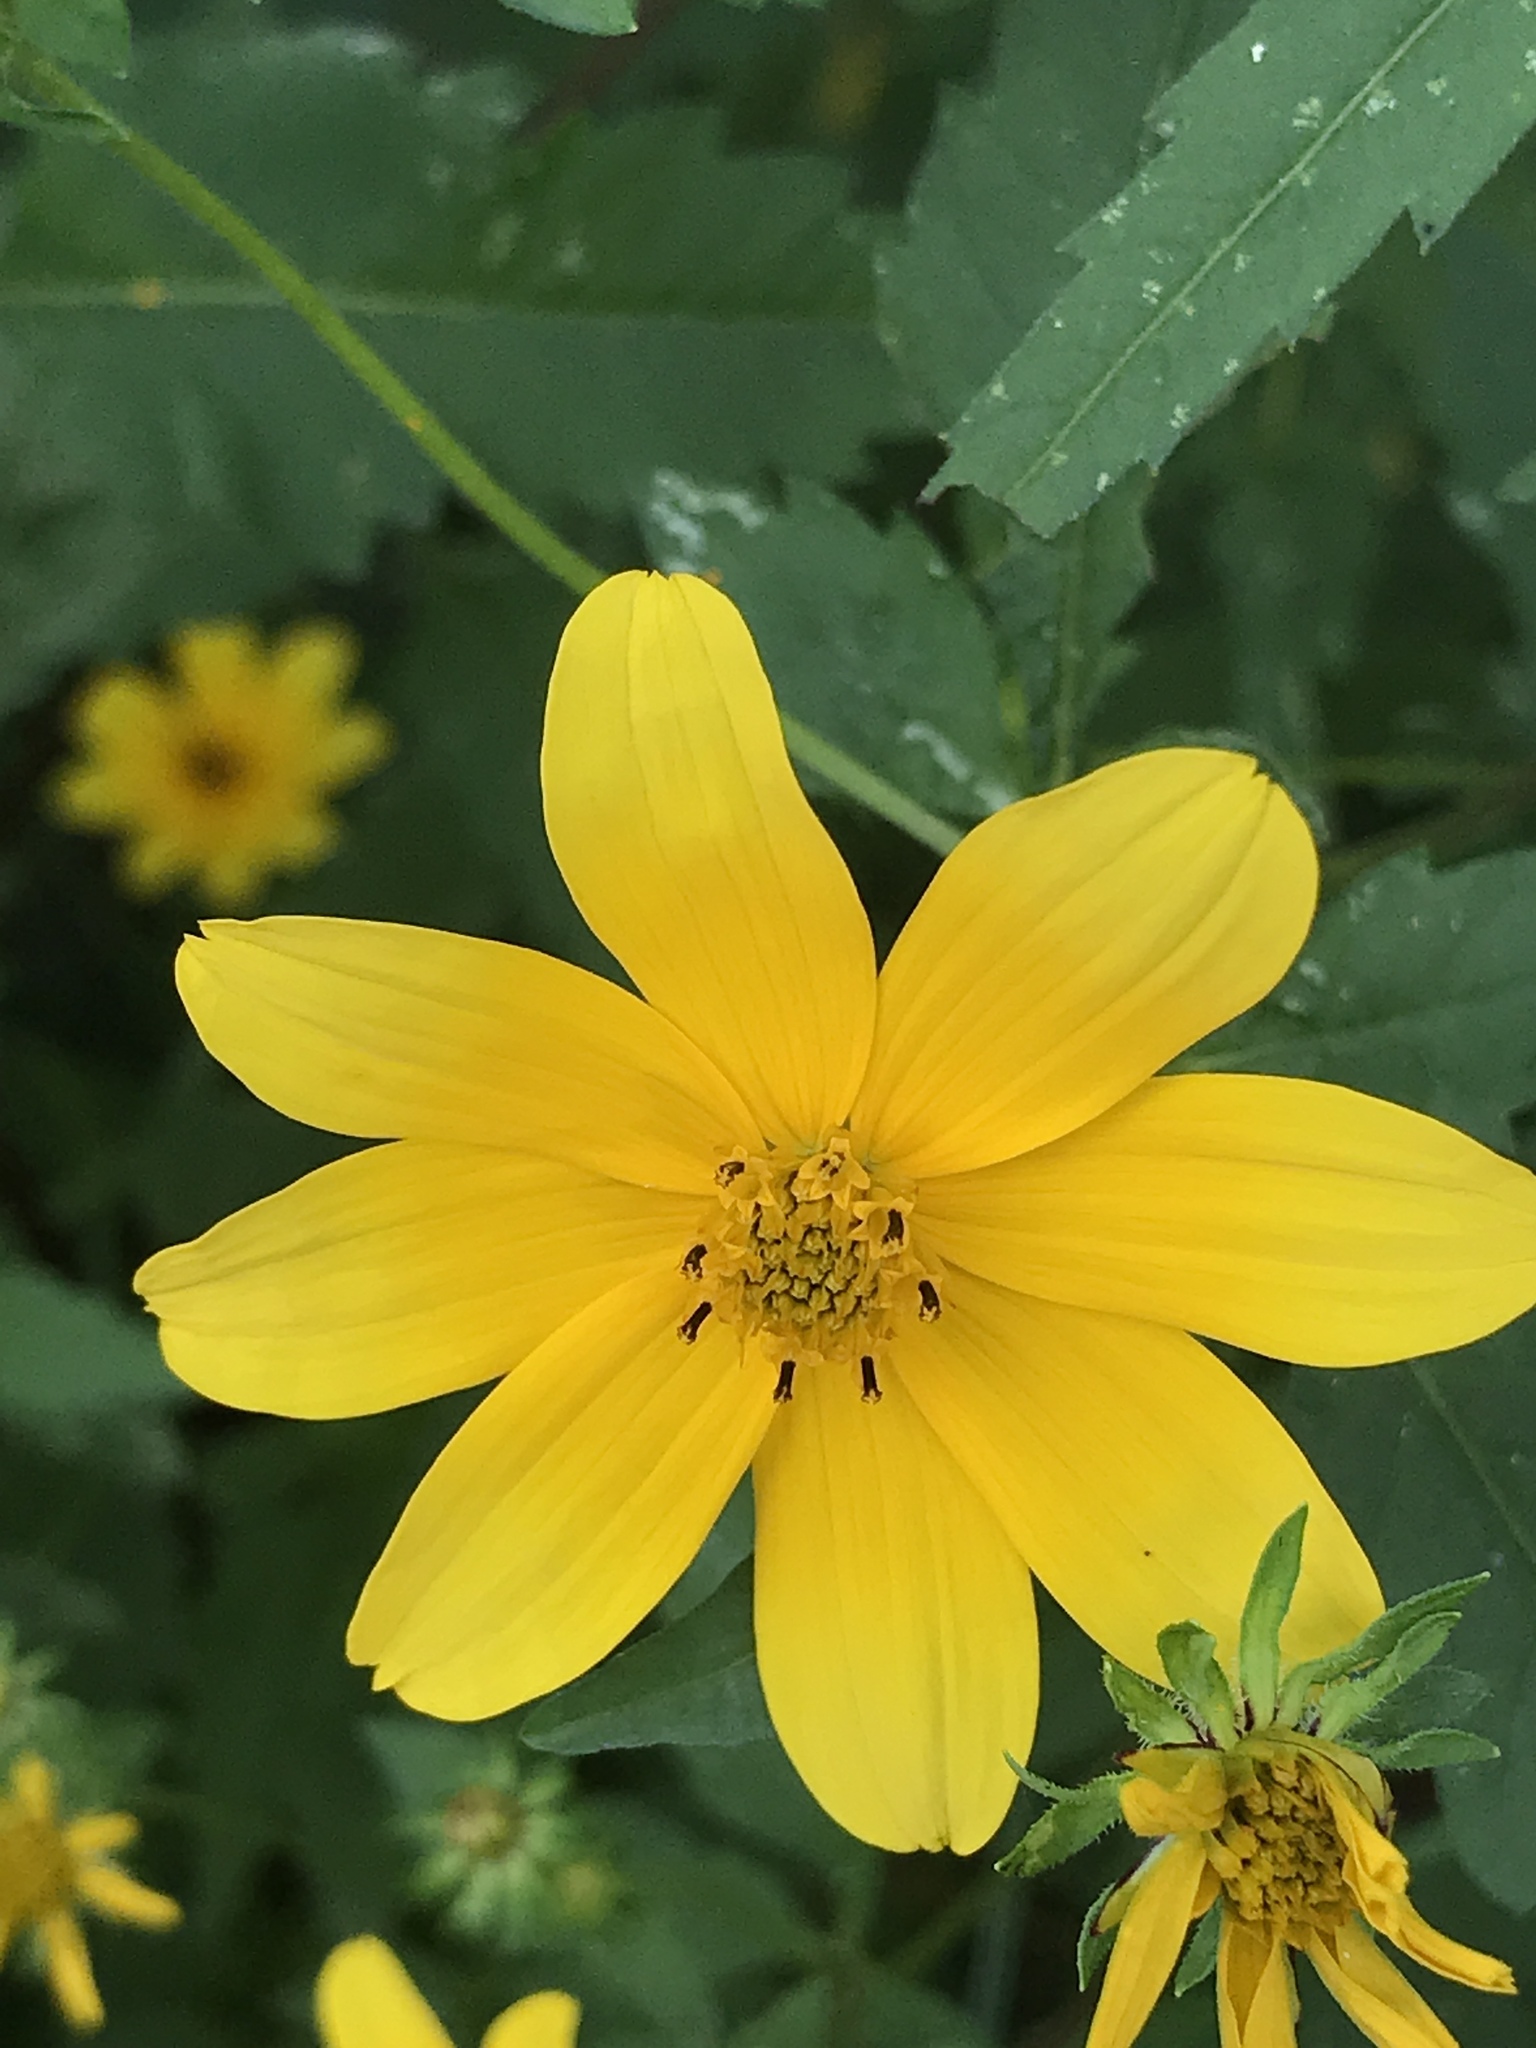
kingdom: Plantae
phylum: Tracheophyta
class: Magnoliopsida
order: Asterales
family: Asteraceae
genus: Bidens
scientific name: Bidens polylepis
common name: Awnless beggarticks
